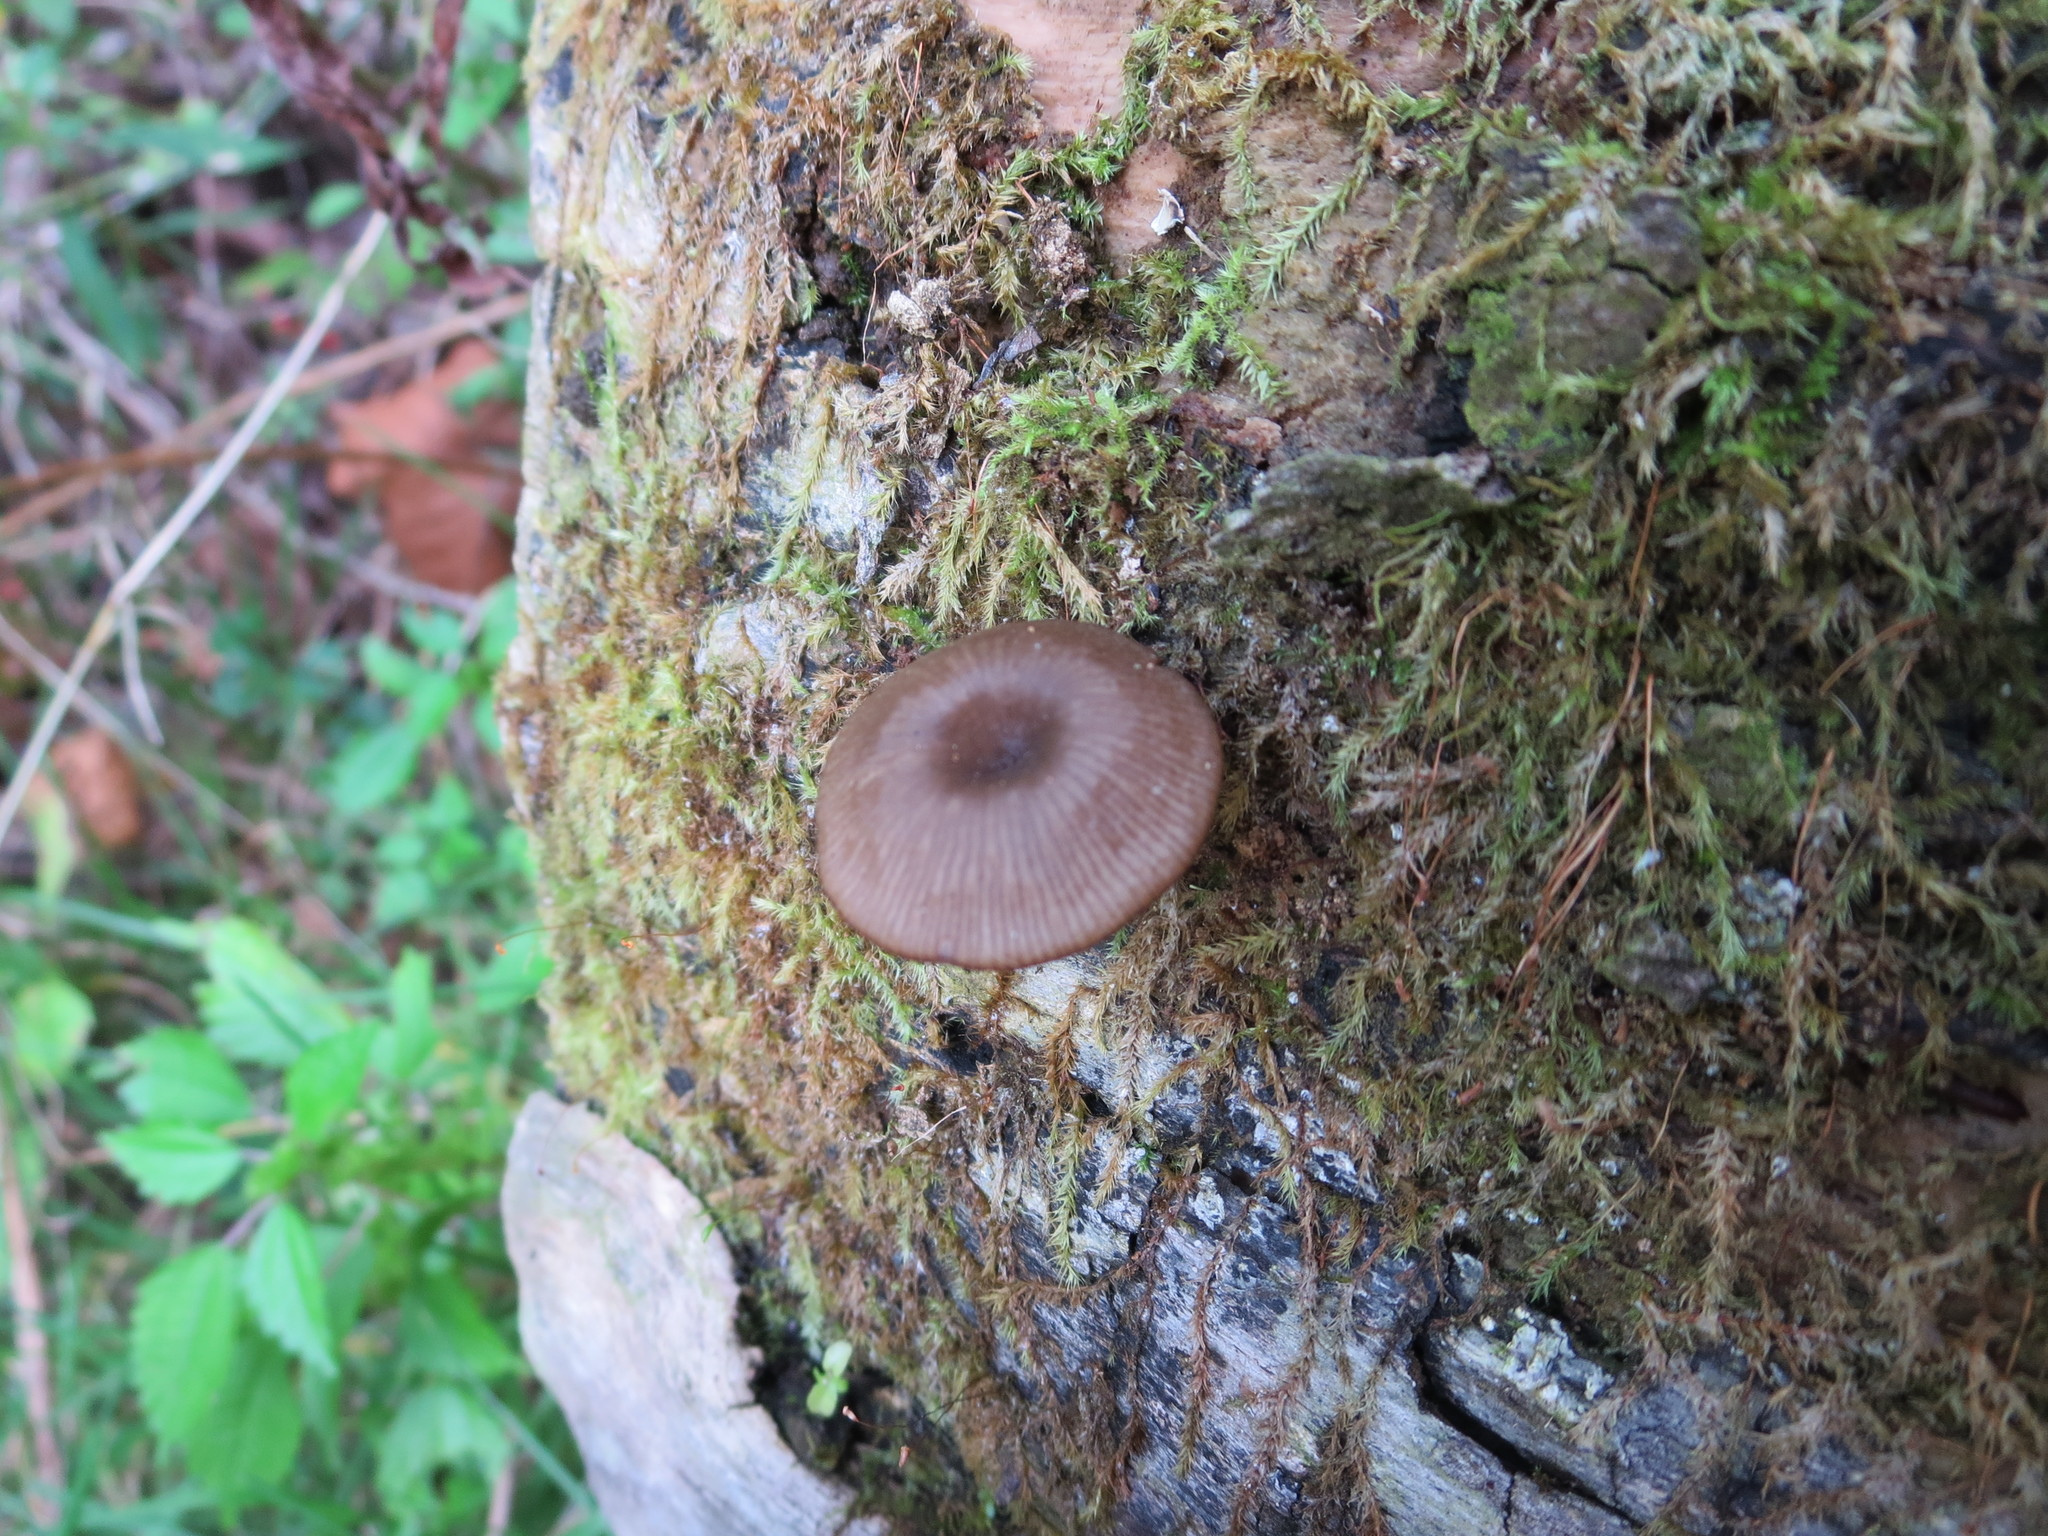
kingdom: Fungi
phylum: Basidiomycota
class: Agaricomycetes
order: Agaricales
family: Hygrophoraceae
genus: Arrhenia
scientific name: Arrhenia epichysium
